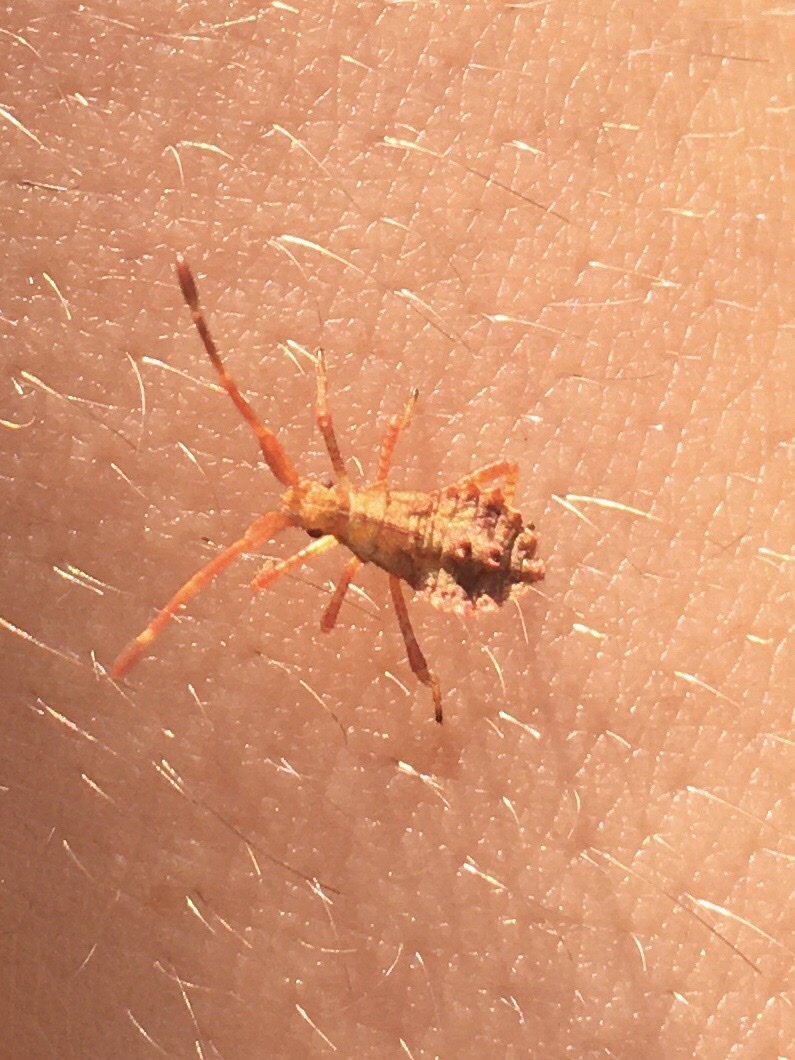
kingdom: Animalia
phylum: Arthropoda
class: Insecta
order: Hemiptera
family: Coreidae
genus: Coreus
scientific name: Coreus marginatus
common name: Dock bug
